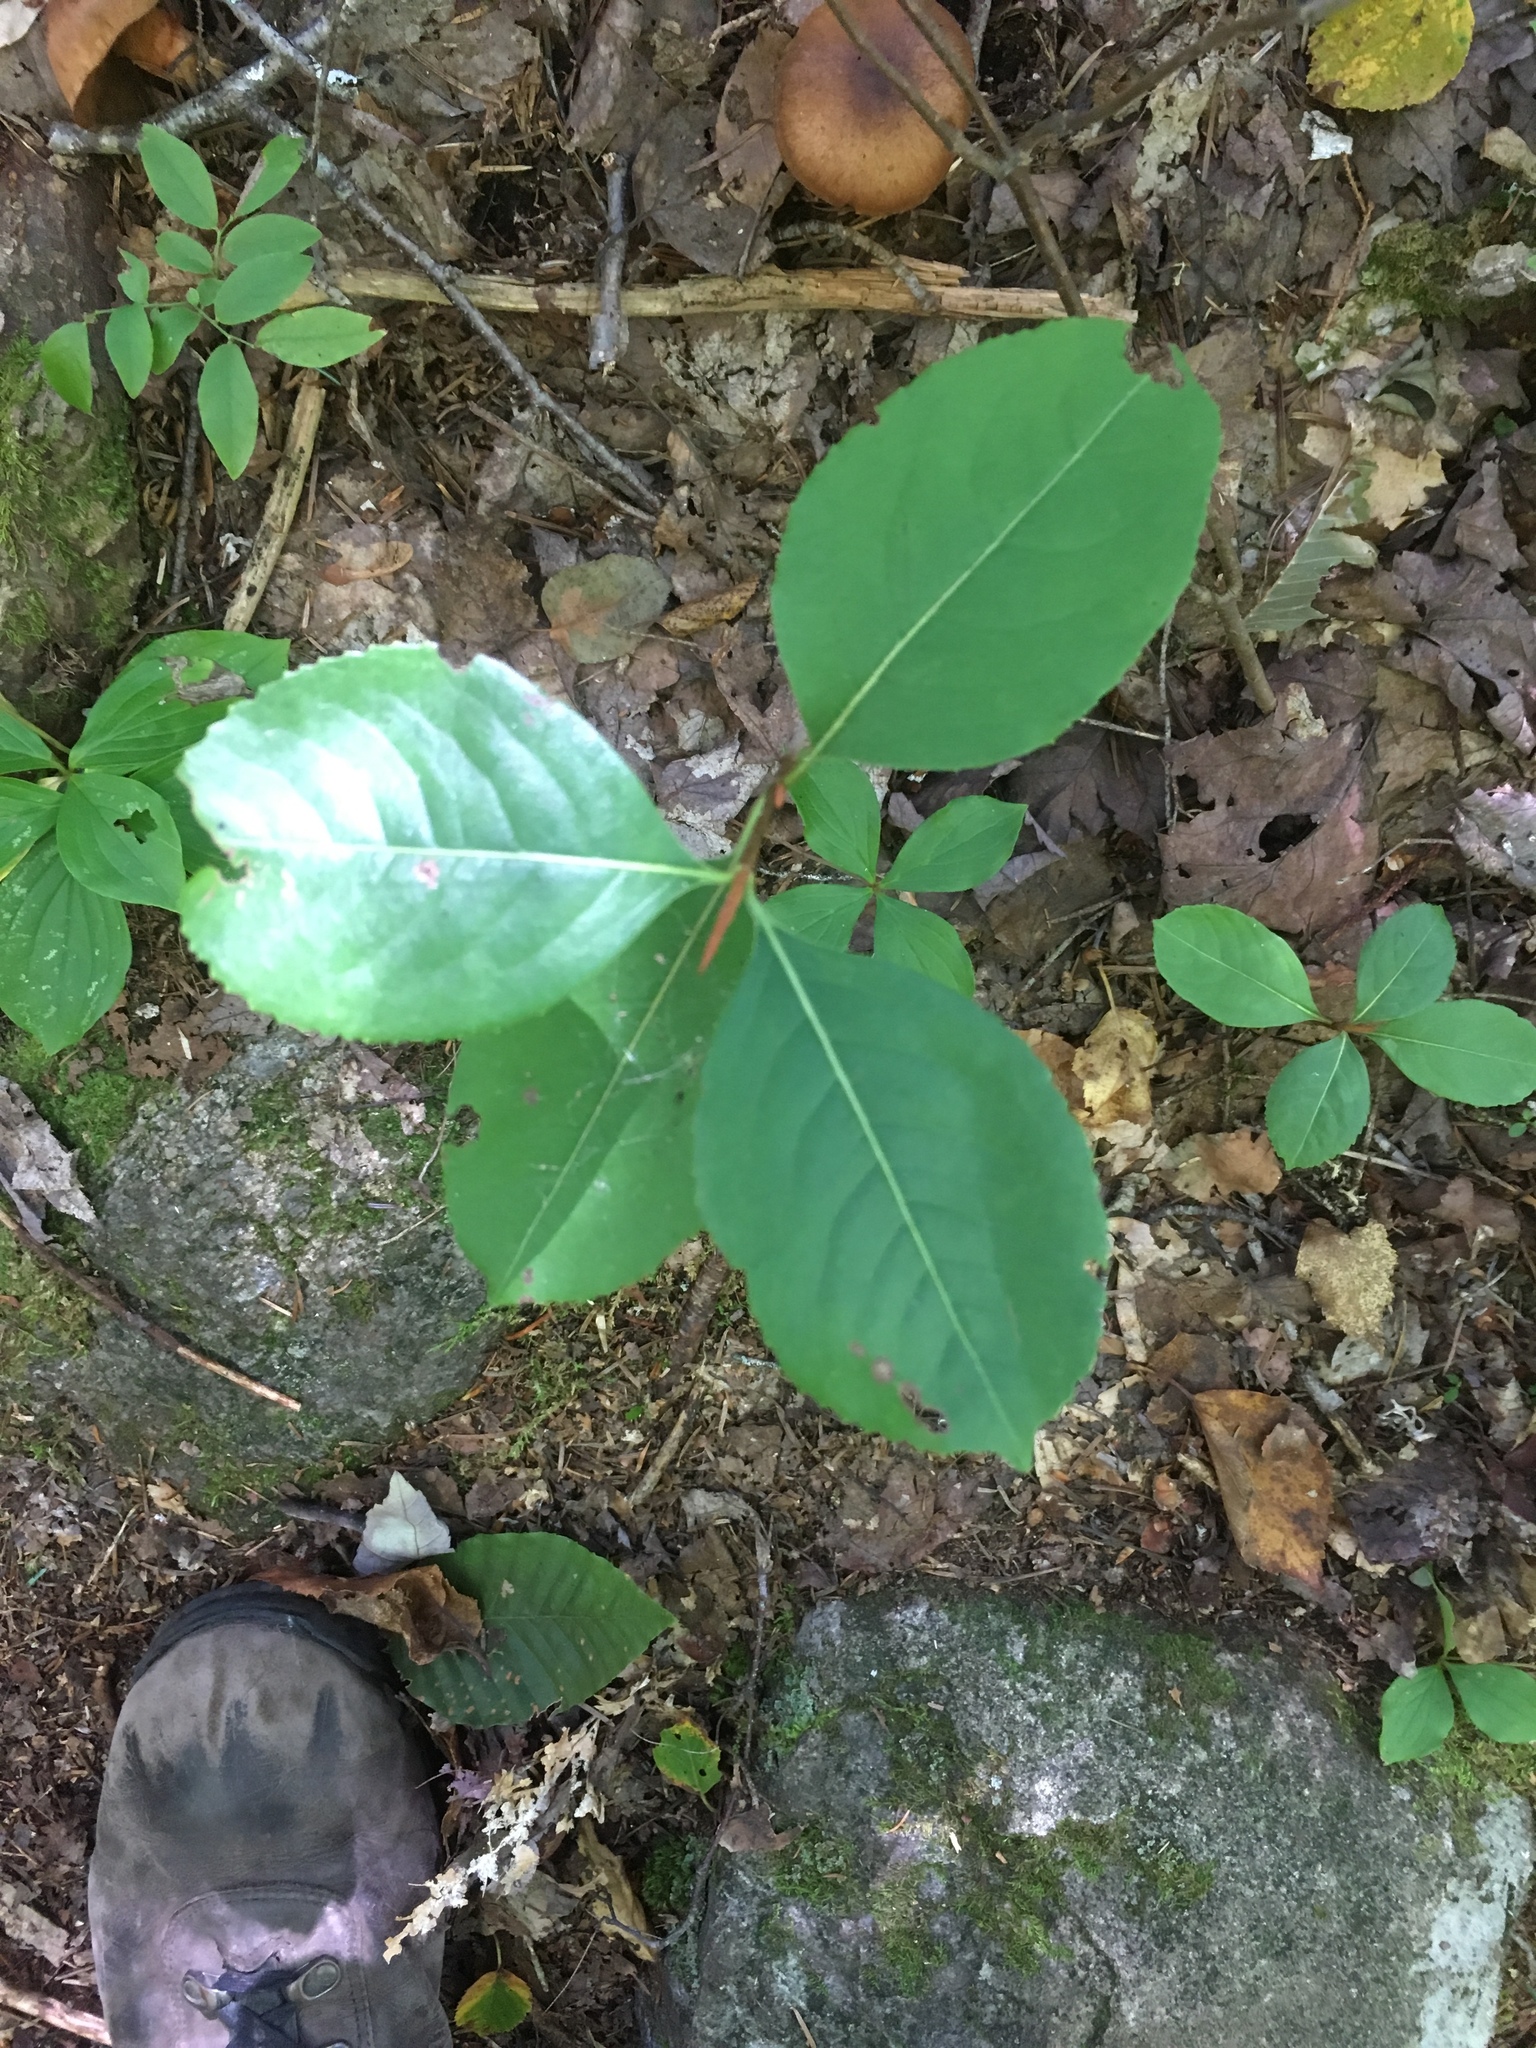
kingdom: Plantae
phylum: Tracheophyta
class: Magnoliopsida
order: Dipsacales
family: Viburnaceae
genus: Viburnum
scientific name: Viburnum lentago
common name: Black haw
